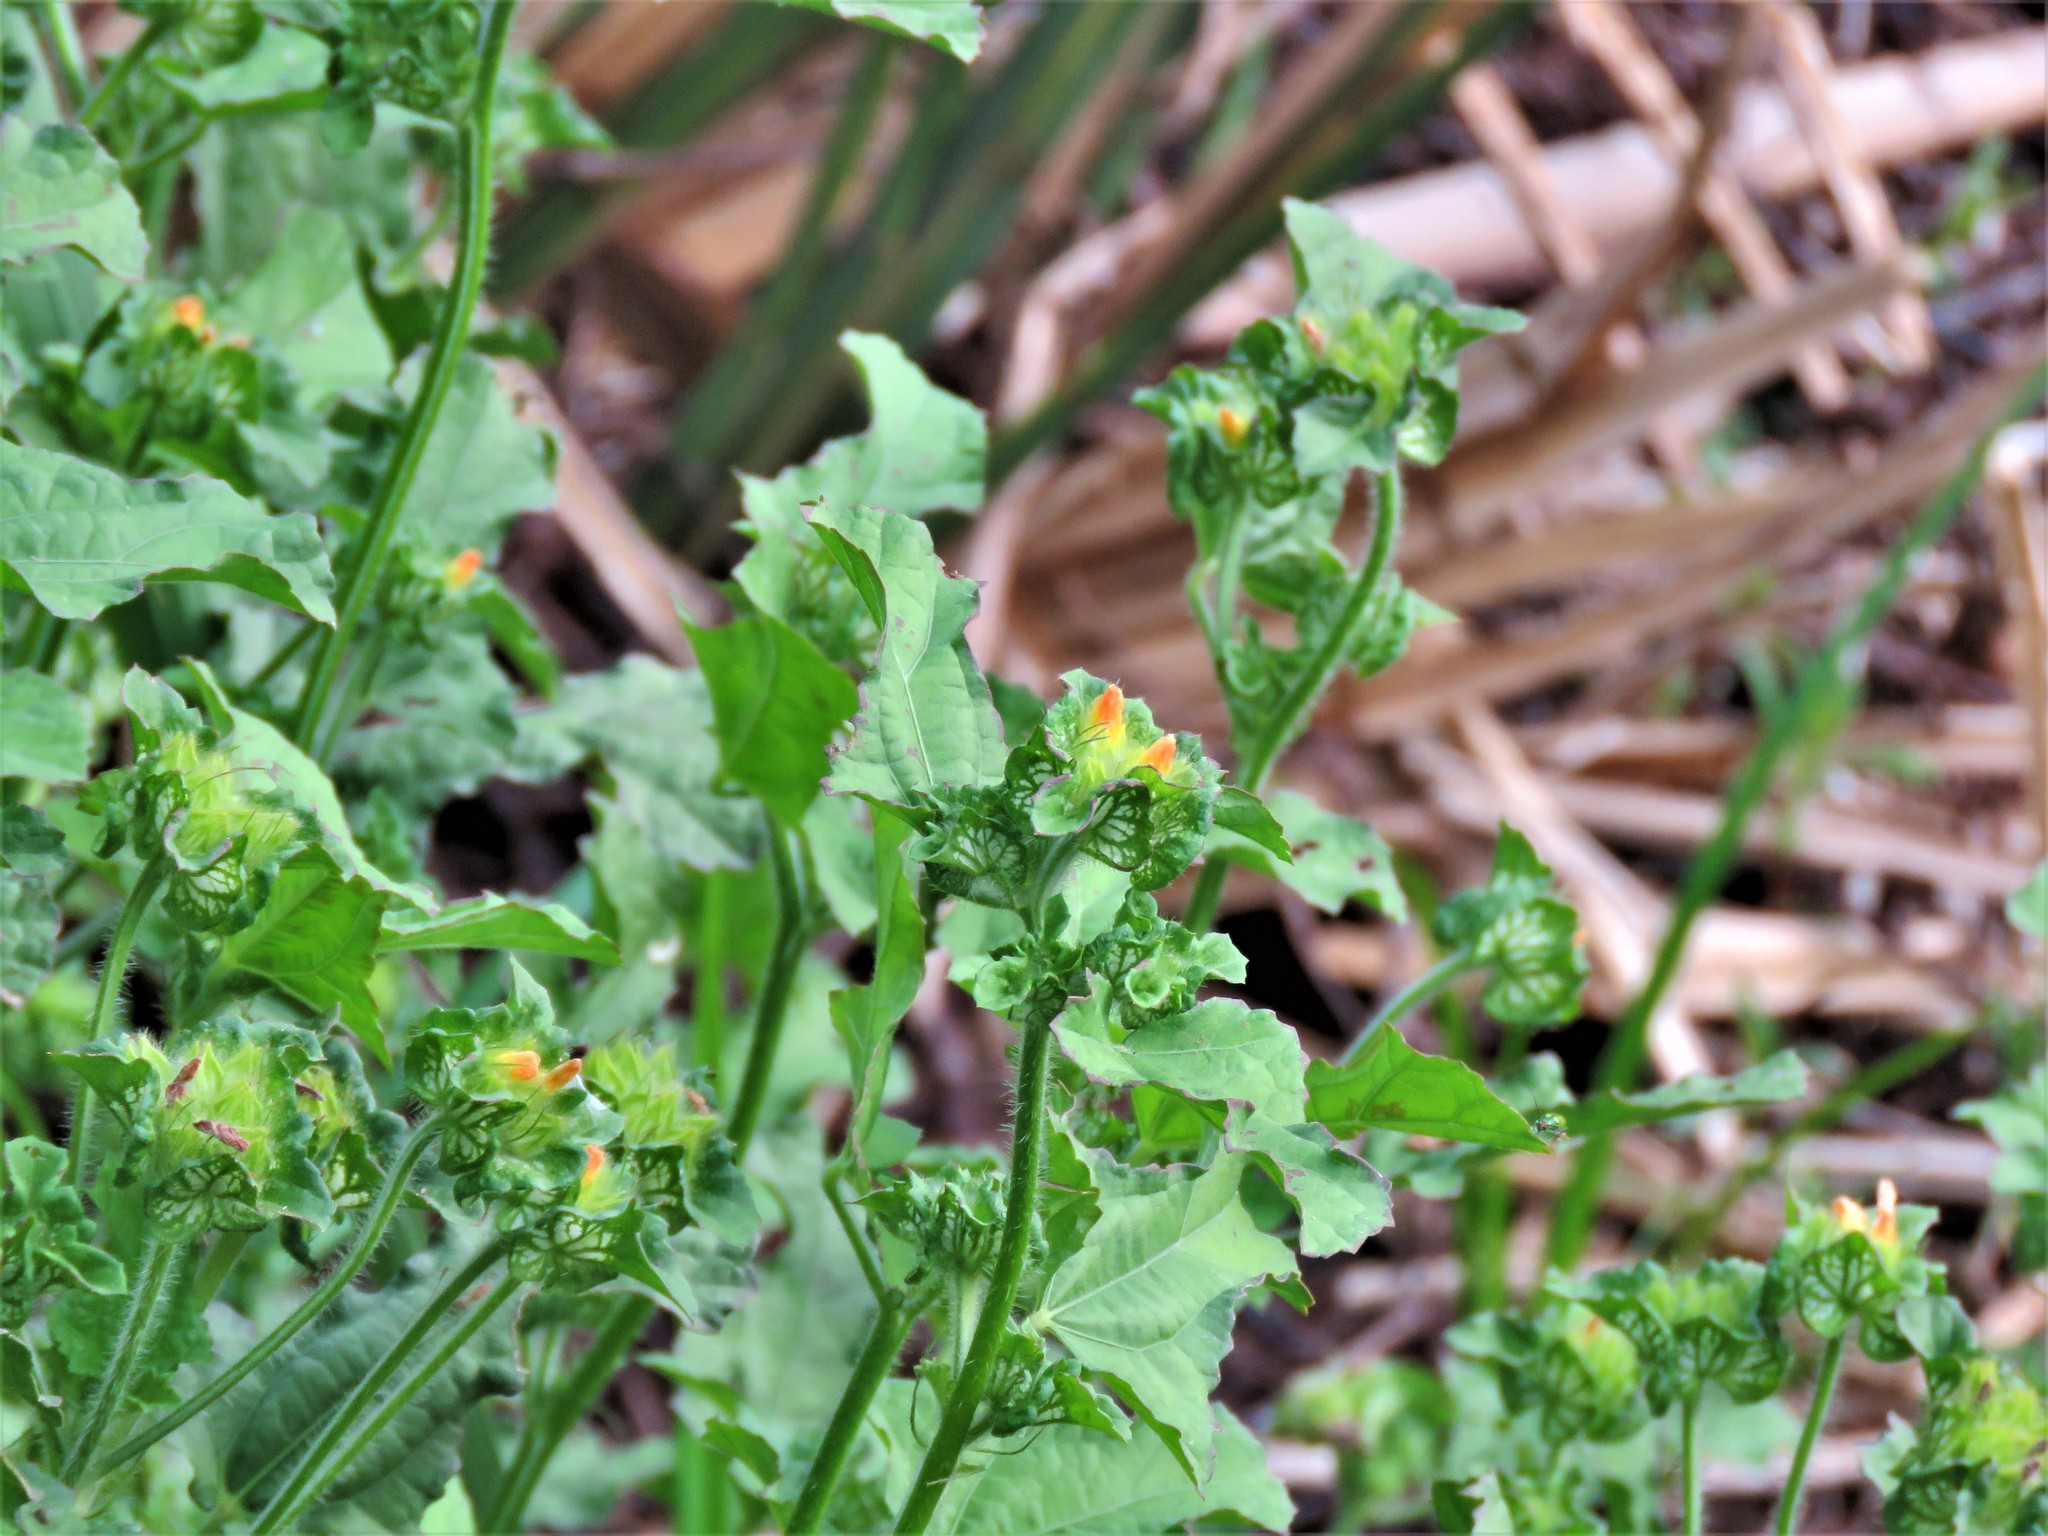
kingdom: Plantae
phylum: Tracheophyta
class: Magnoliopsida
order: Malvales
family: Malvaceae
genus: Malachra
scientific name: Malachra capitata
